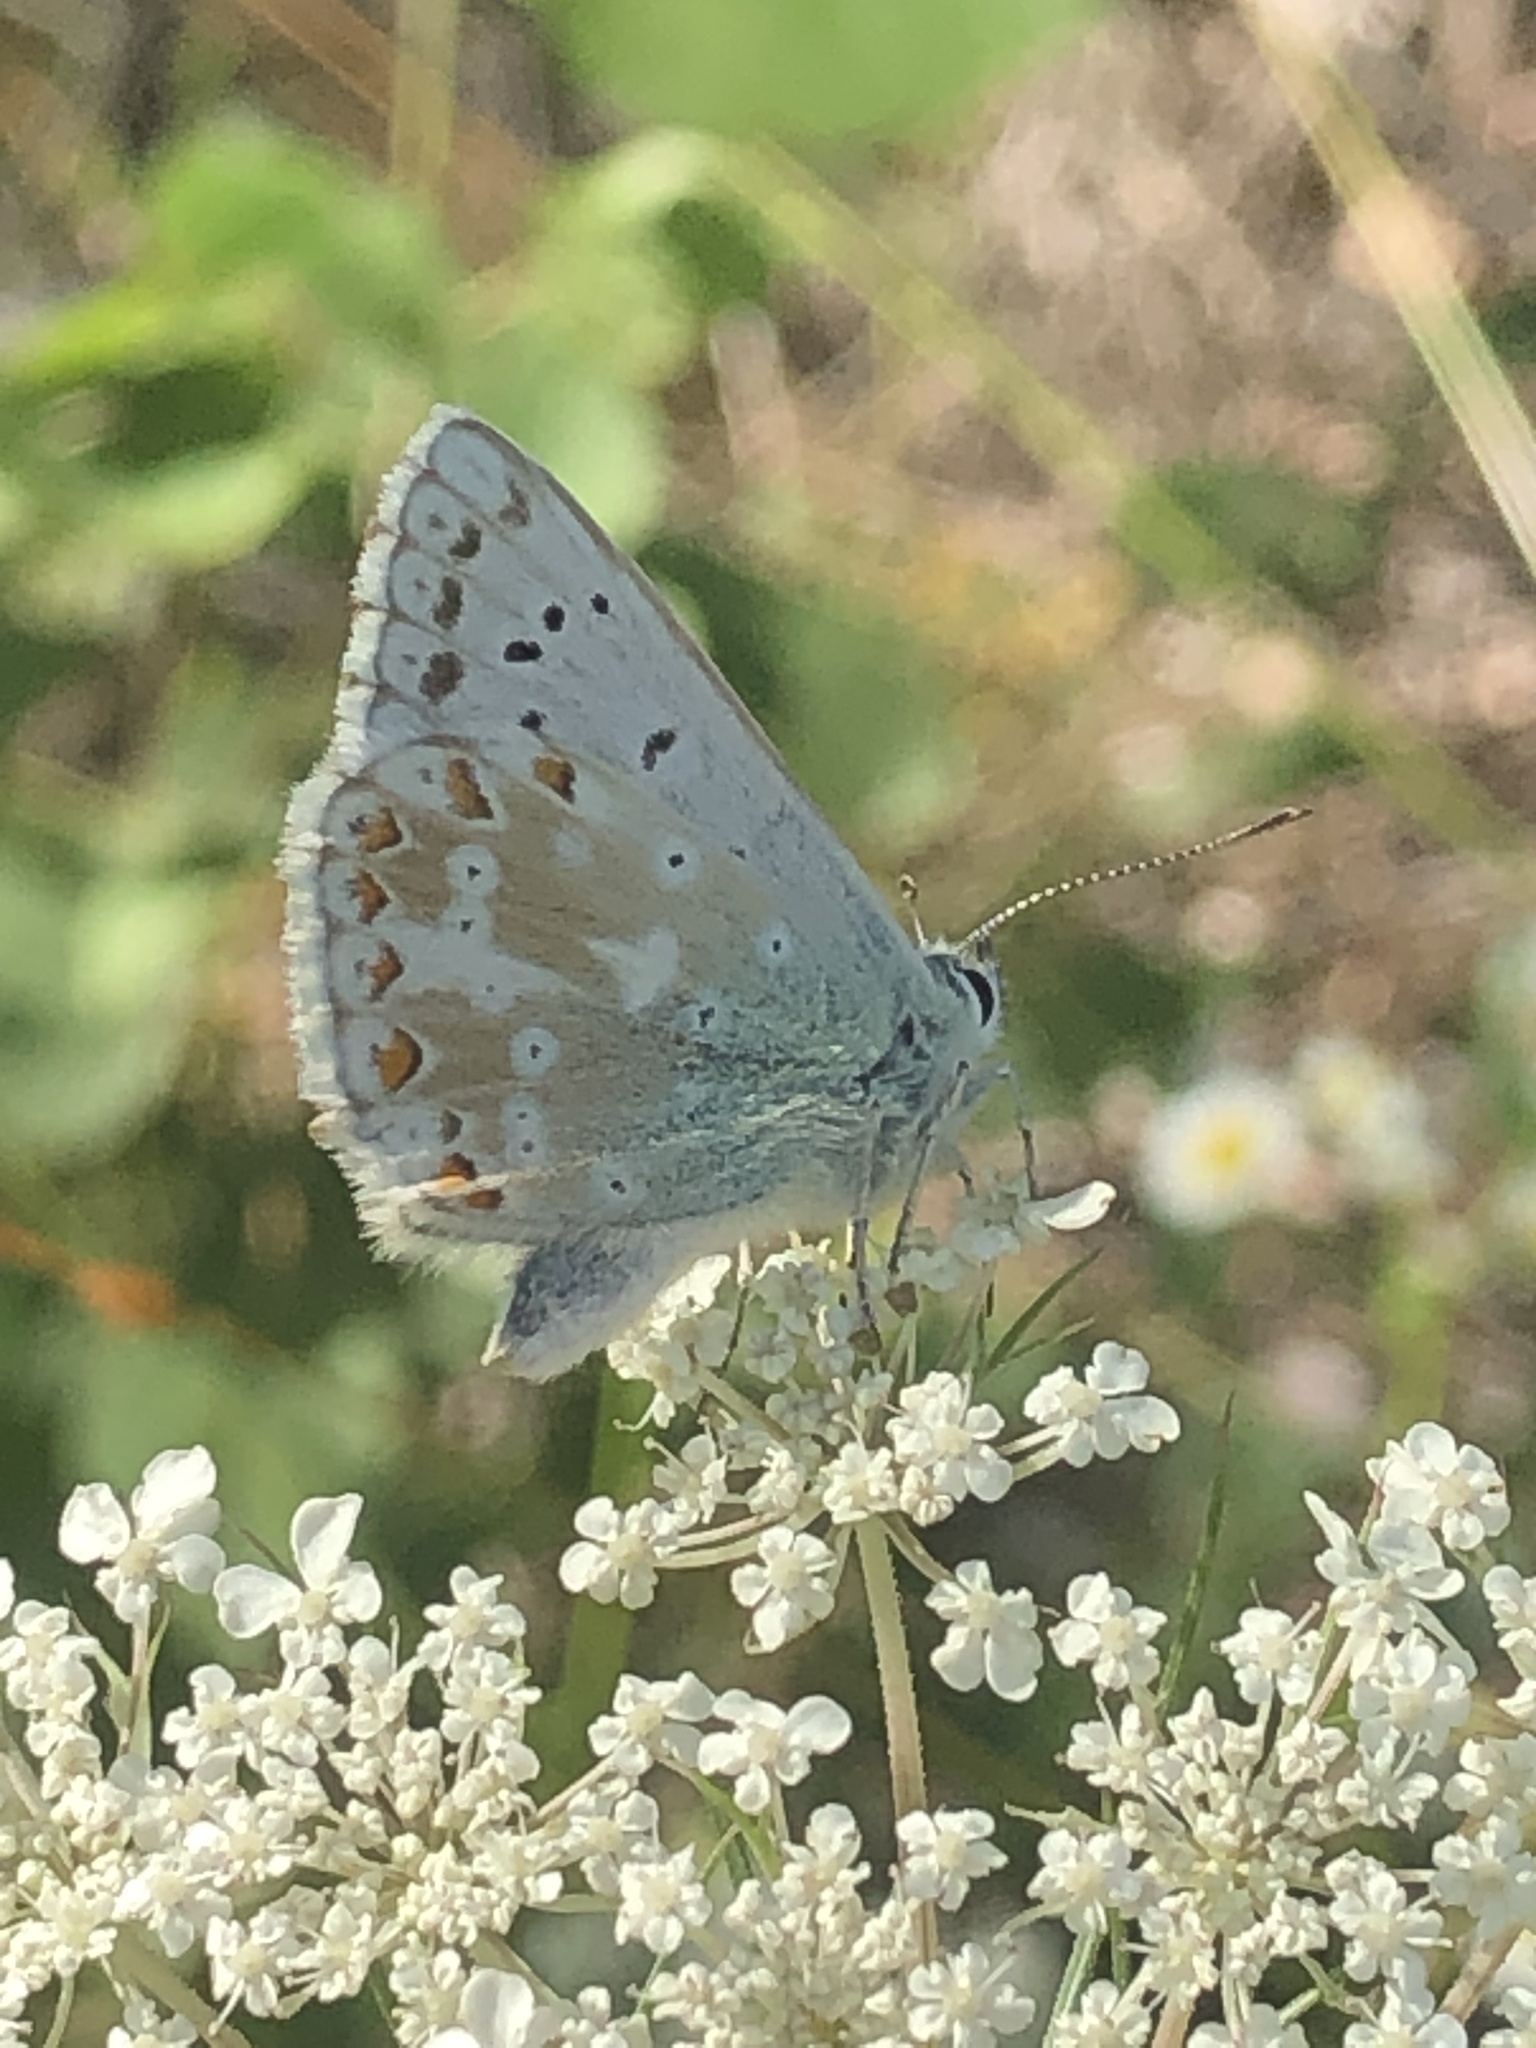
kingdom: Animalia
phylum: Arthropoda
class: Insecta
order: Lepidoptera
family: Lycaenidae
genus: Lysandra
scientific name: Lysandra coridon
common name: Chalkhill blue
